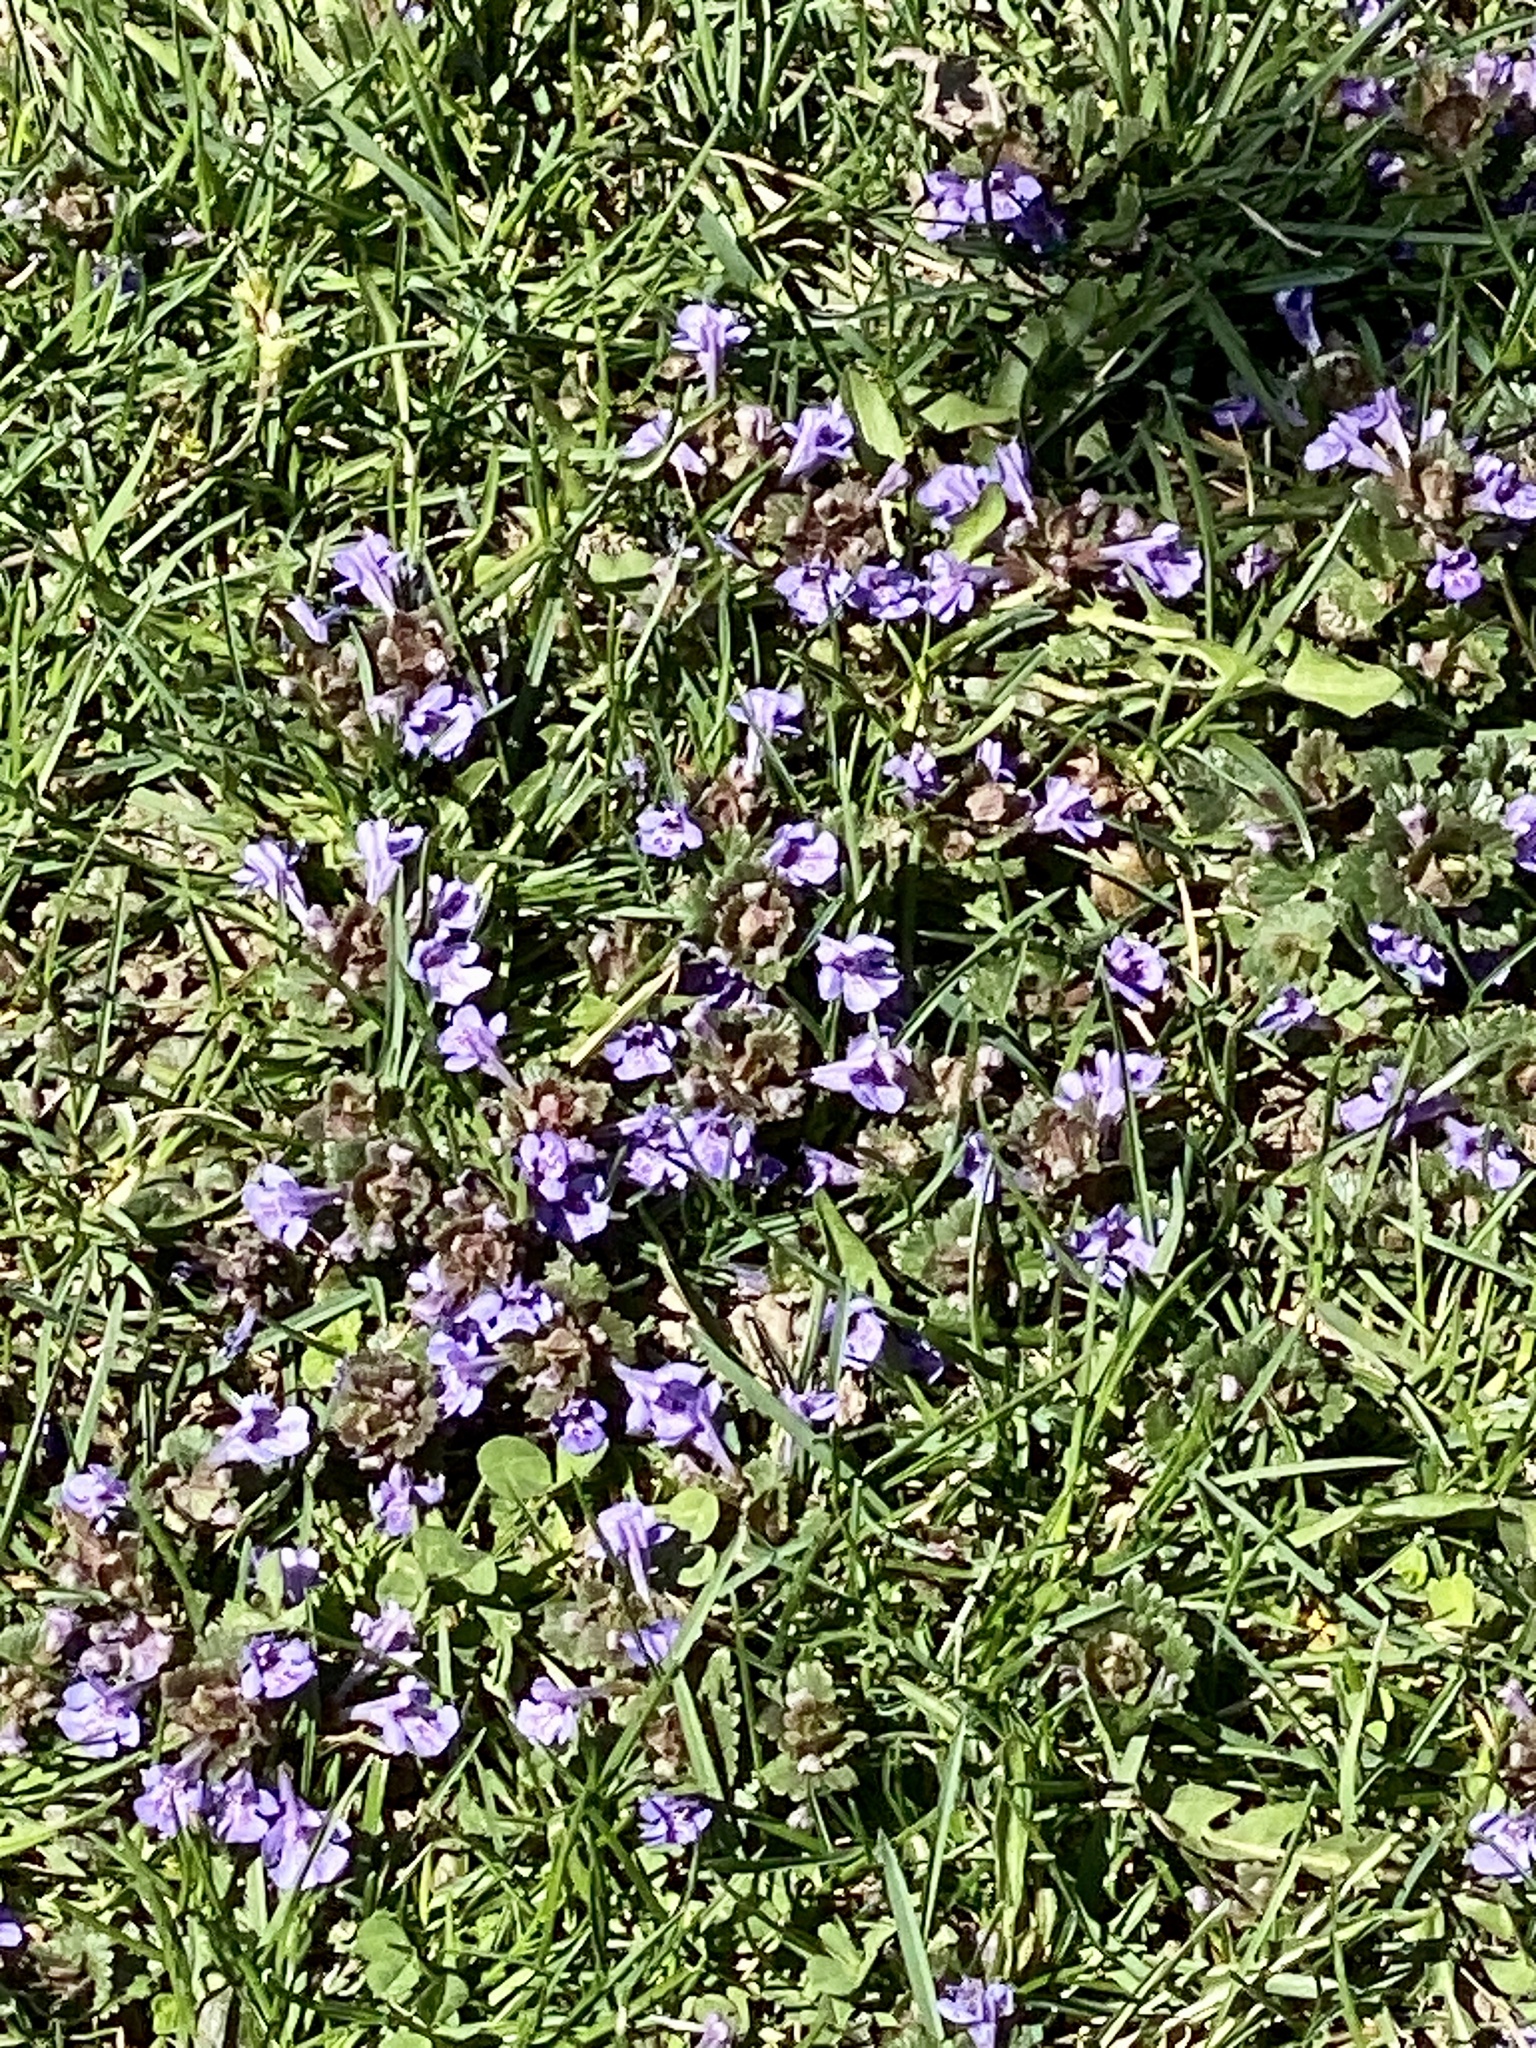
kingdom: Plantae
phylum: Tracheophyta
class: Magnoliopsida
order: Lamiales
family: Lamiaceae
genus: Glechoma
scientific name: Glechoma hederacea
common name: Ground ivy
